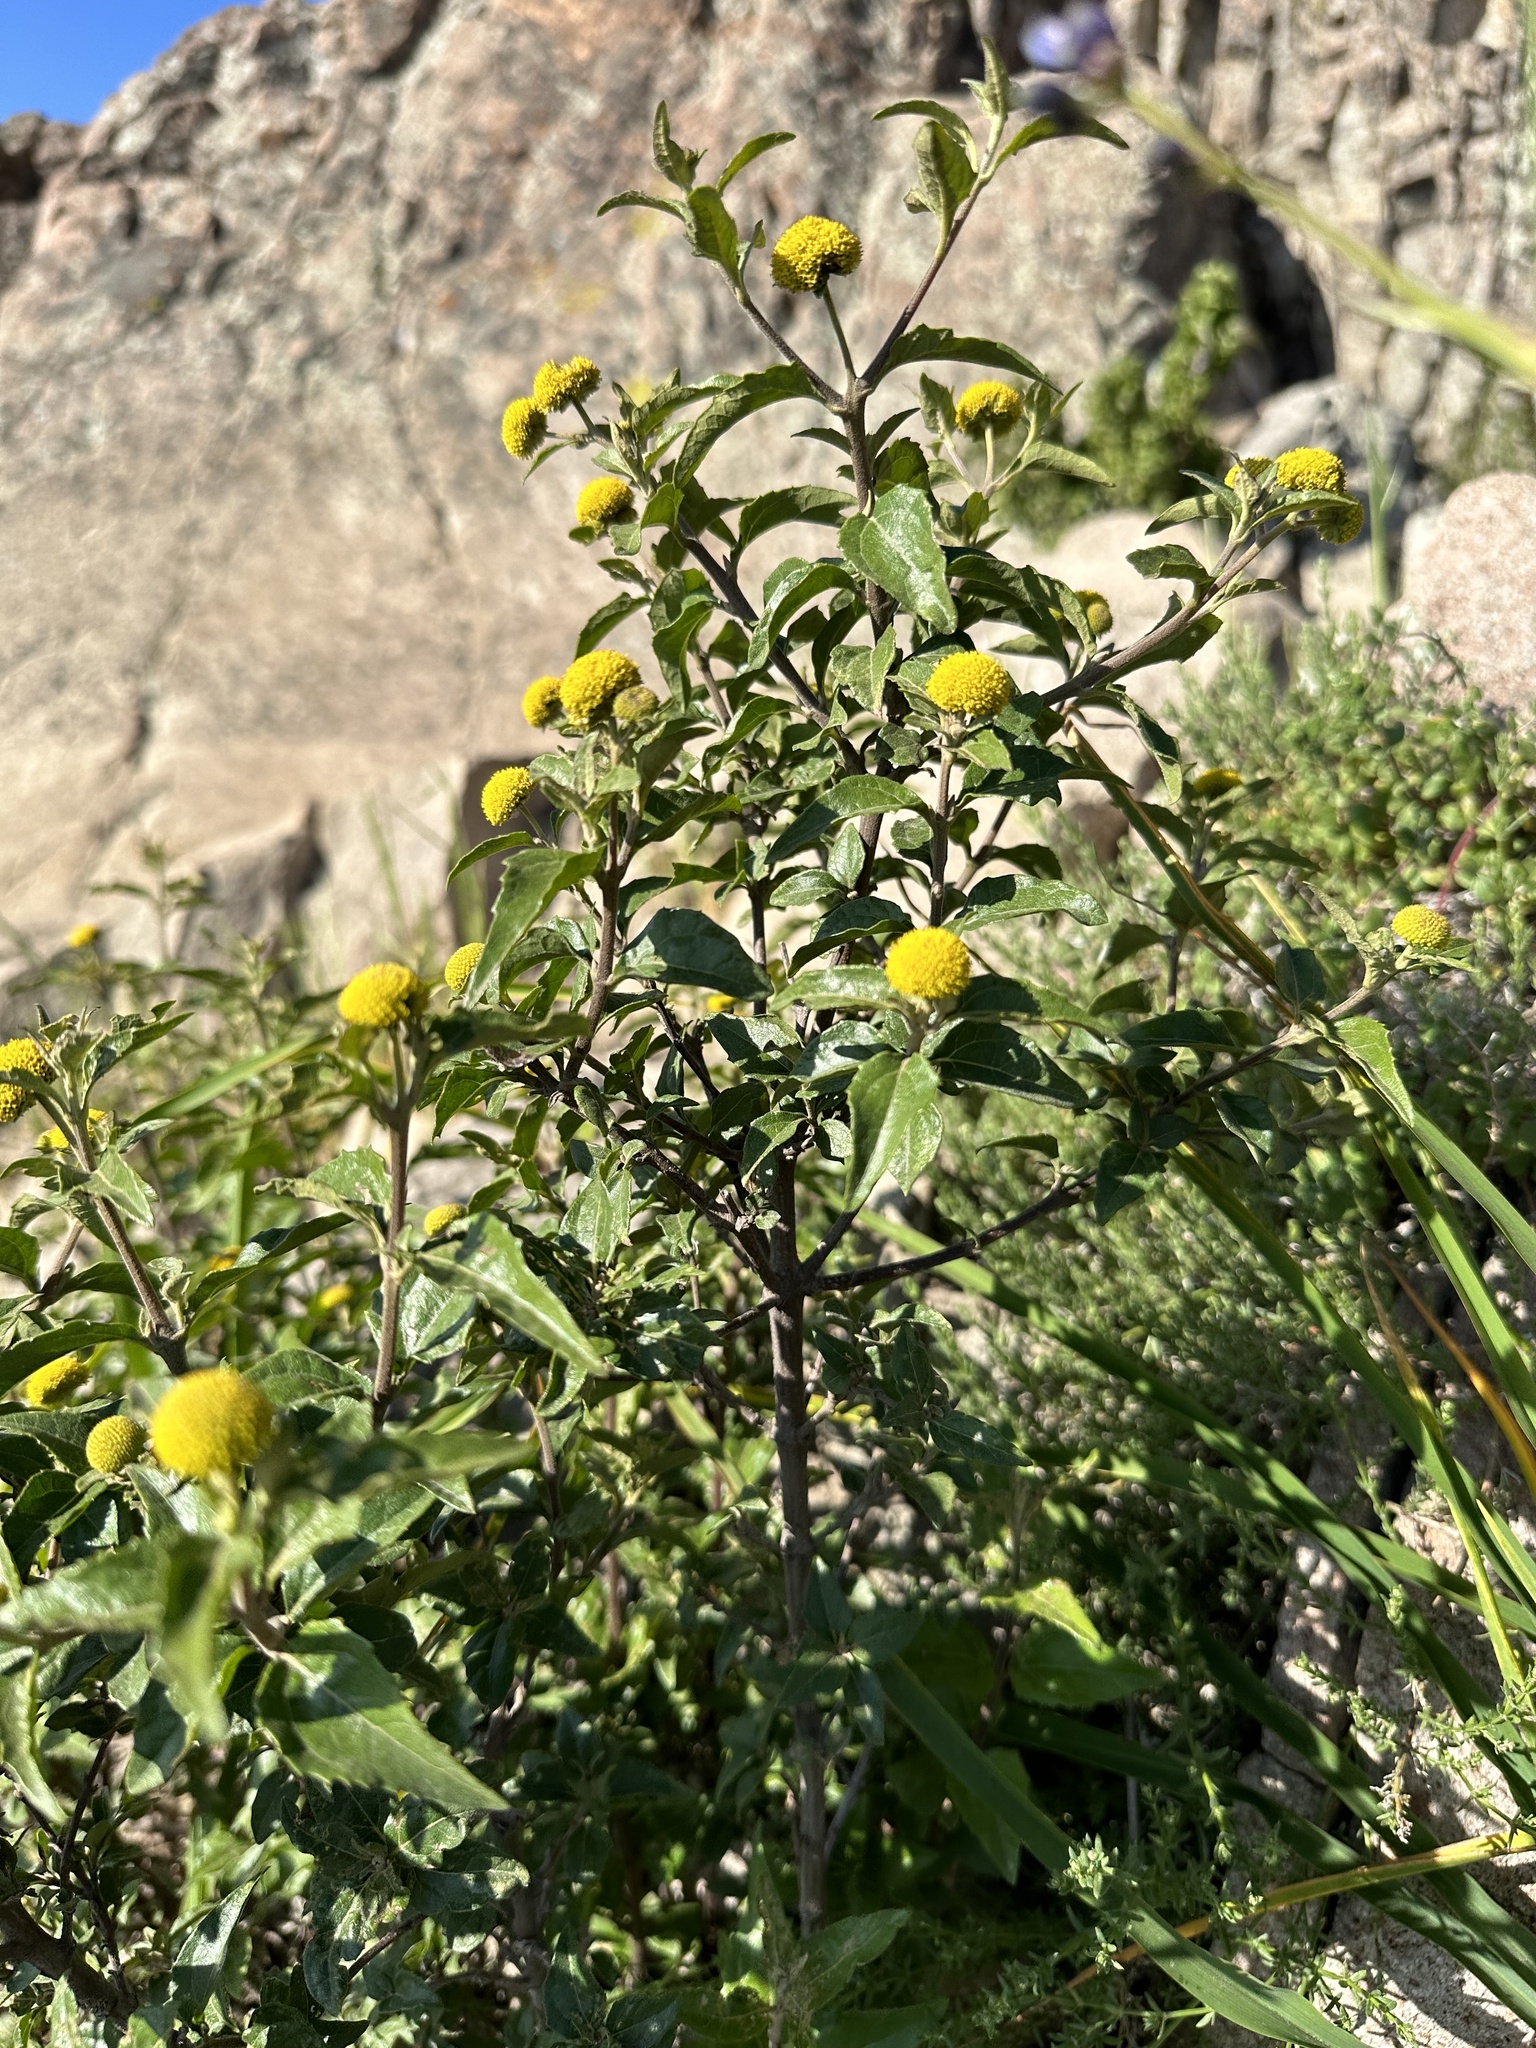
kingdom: Plantae
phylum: Tracheophyta
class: Magnoliopsida
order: Asterales
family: Asteraceae
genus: Podanthus
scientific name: Podanthus mitiqui
